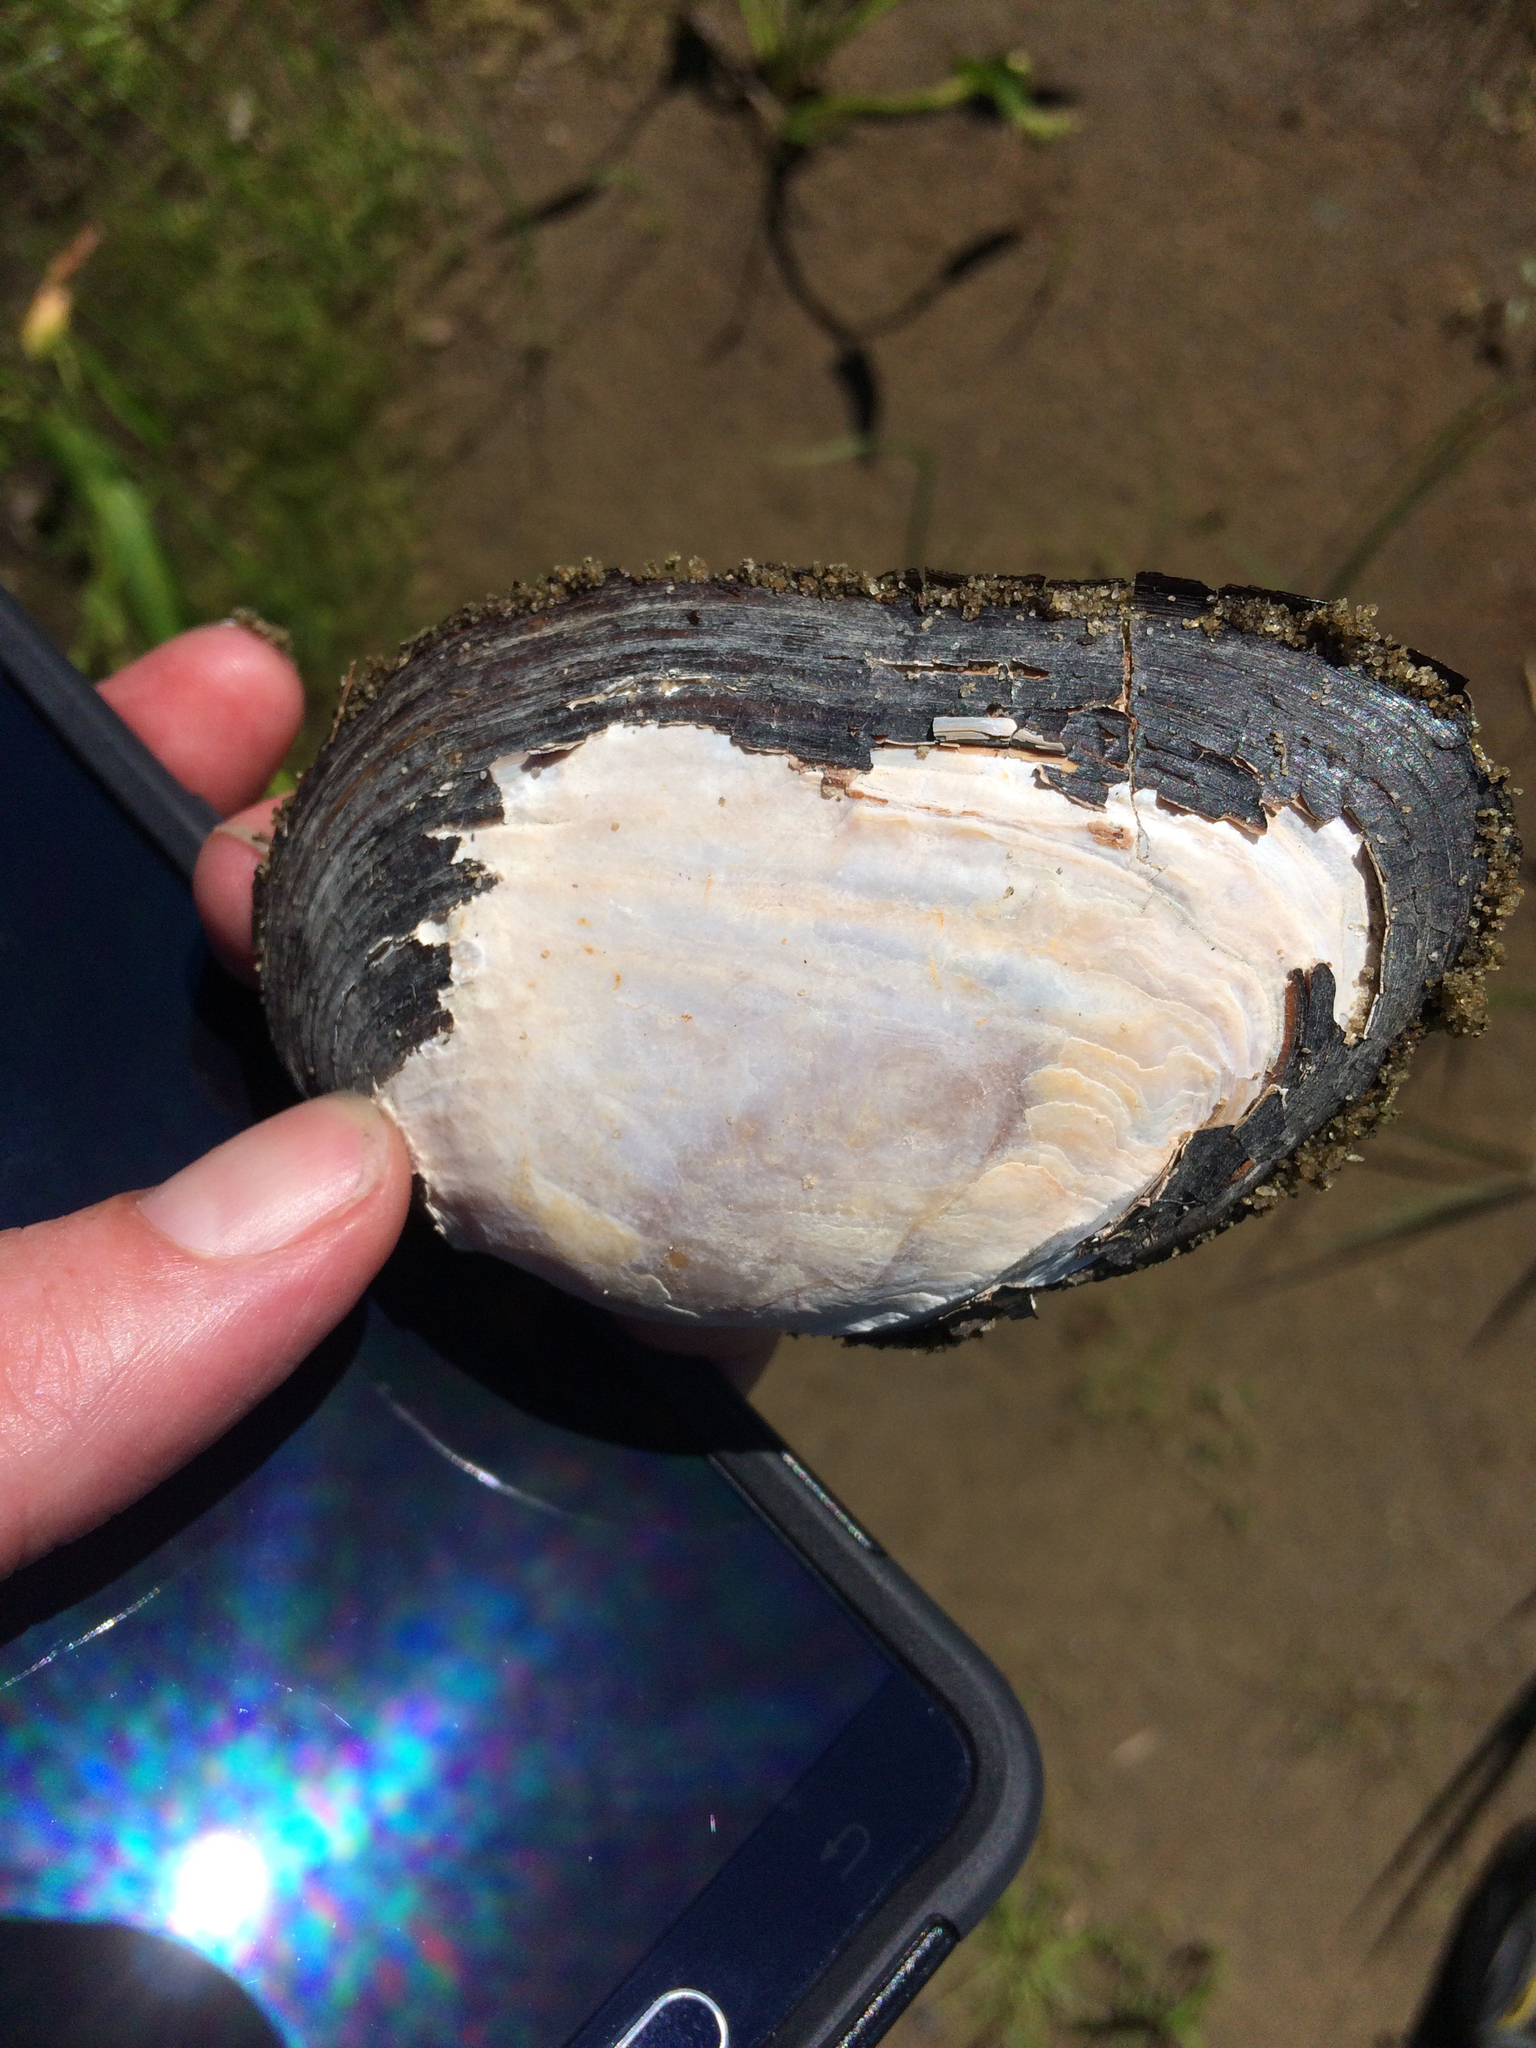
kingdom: Animalia
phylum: Mollusca
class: Bivalvia
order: Unionida
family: Unionidae
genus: Elliptio
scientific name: Elliptio complanata
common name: Eastern elliptio
